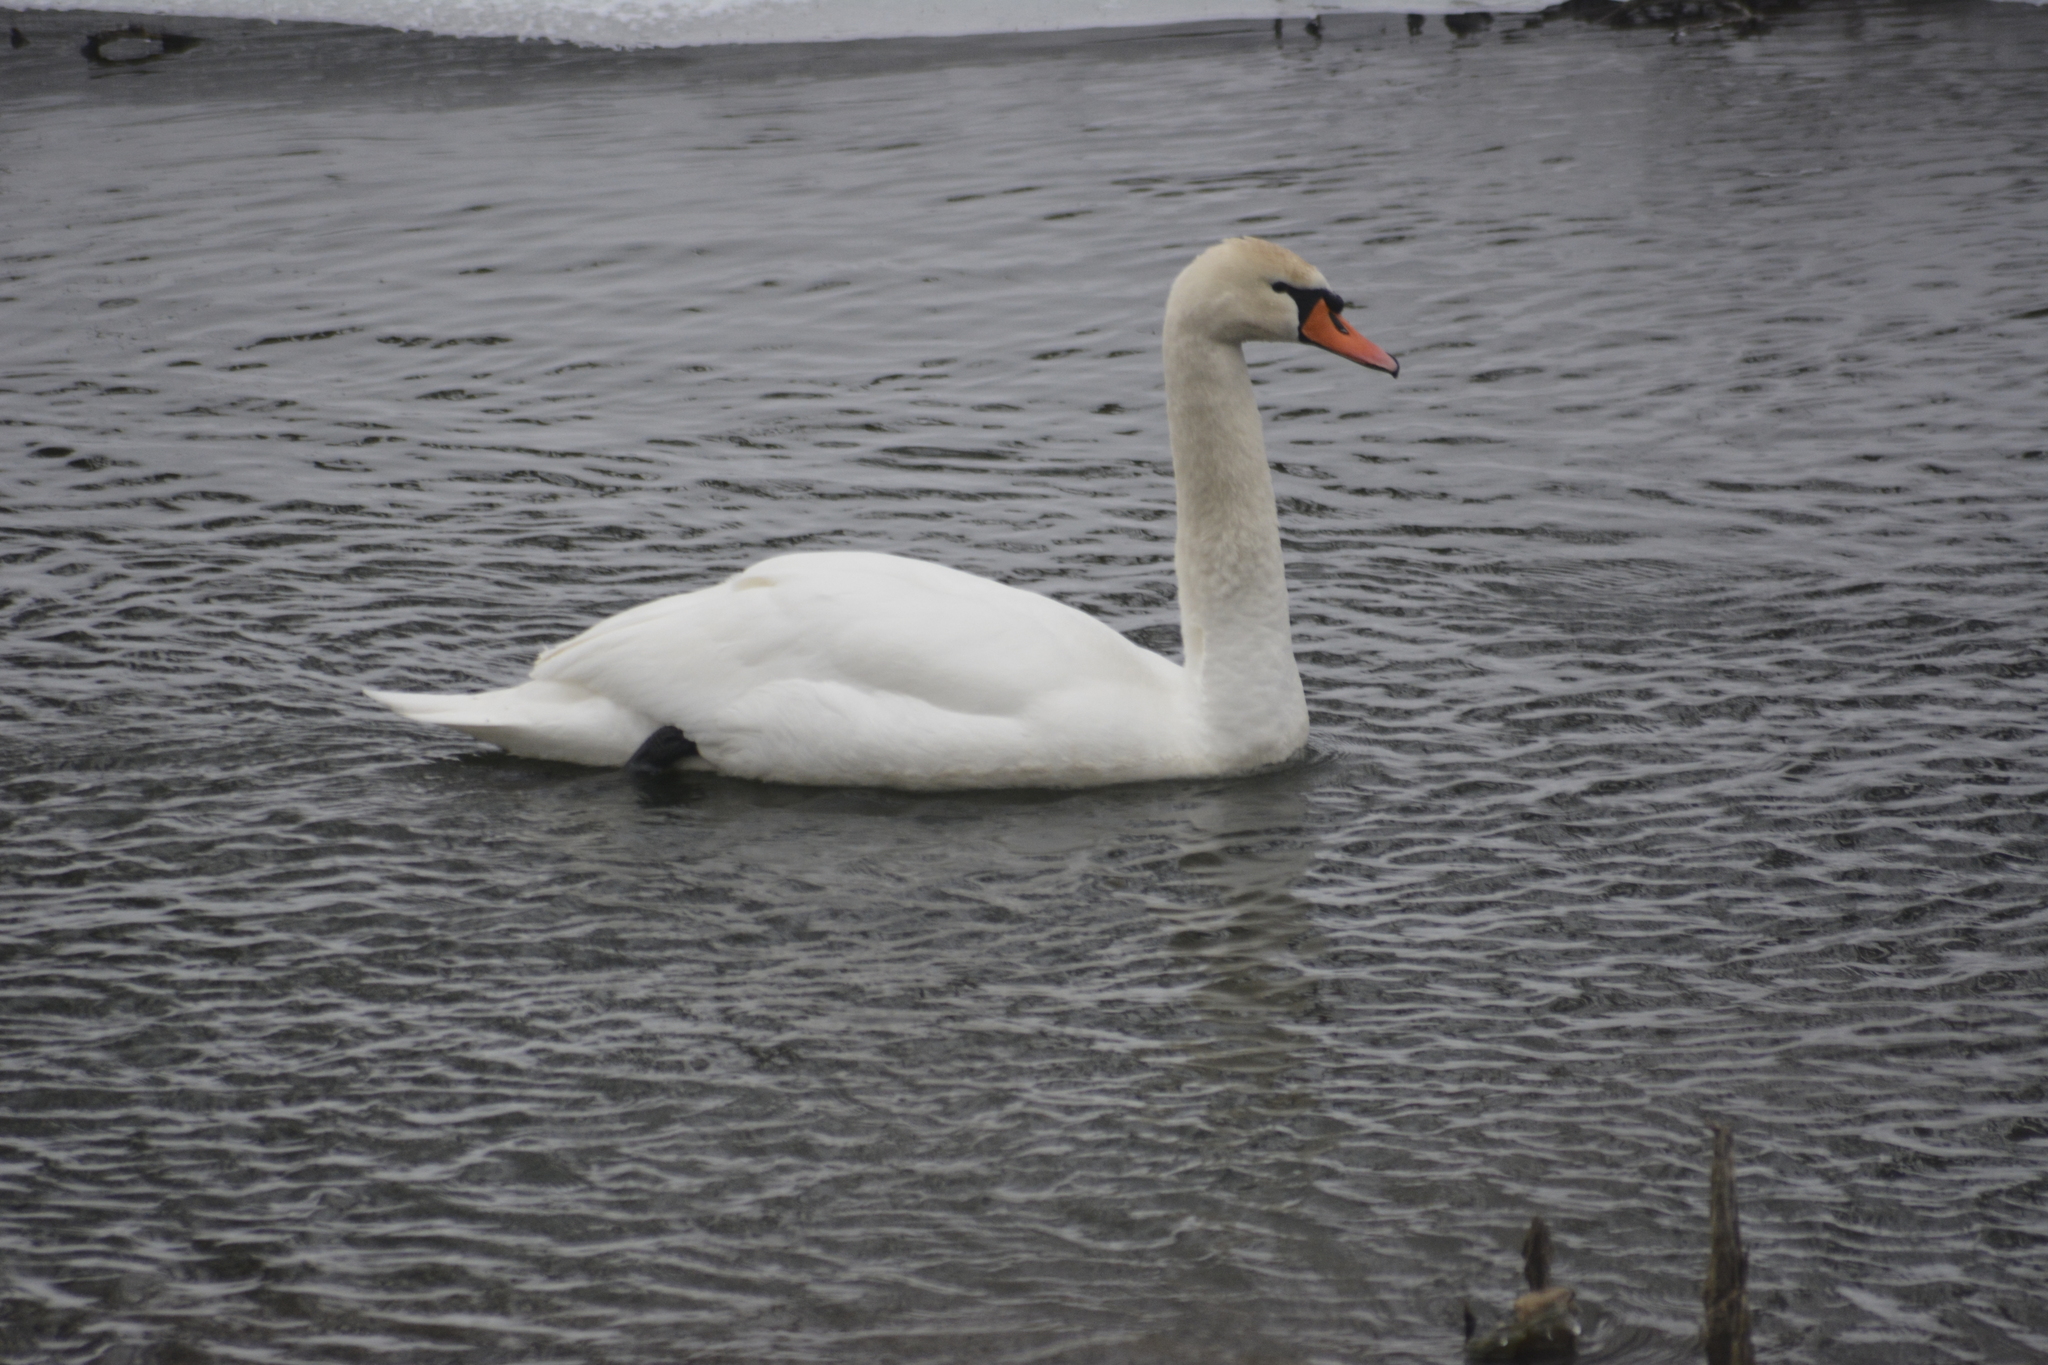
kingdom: Animalia
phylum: Chordata
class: Aves
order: Anseriformes
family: Anatidae
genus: Cygnus
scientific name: Cygnus olor
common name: Mute swan
